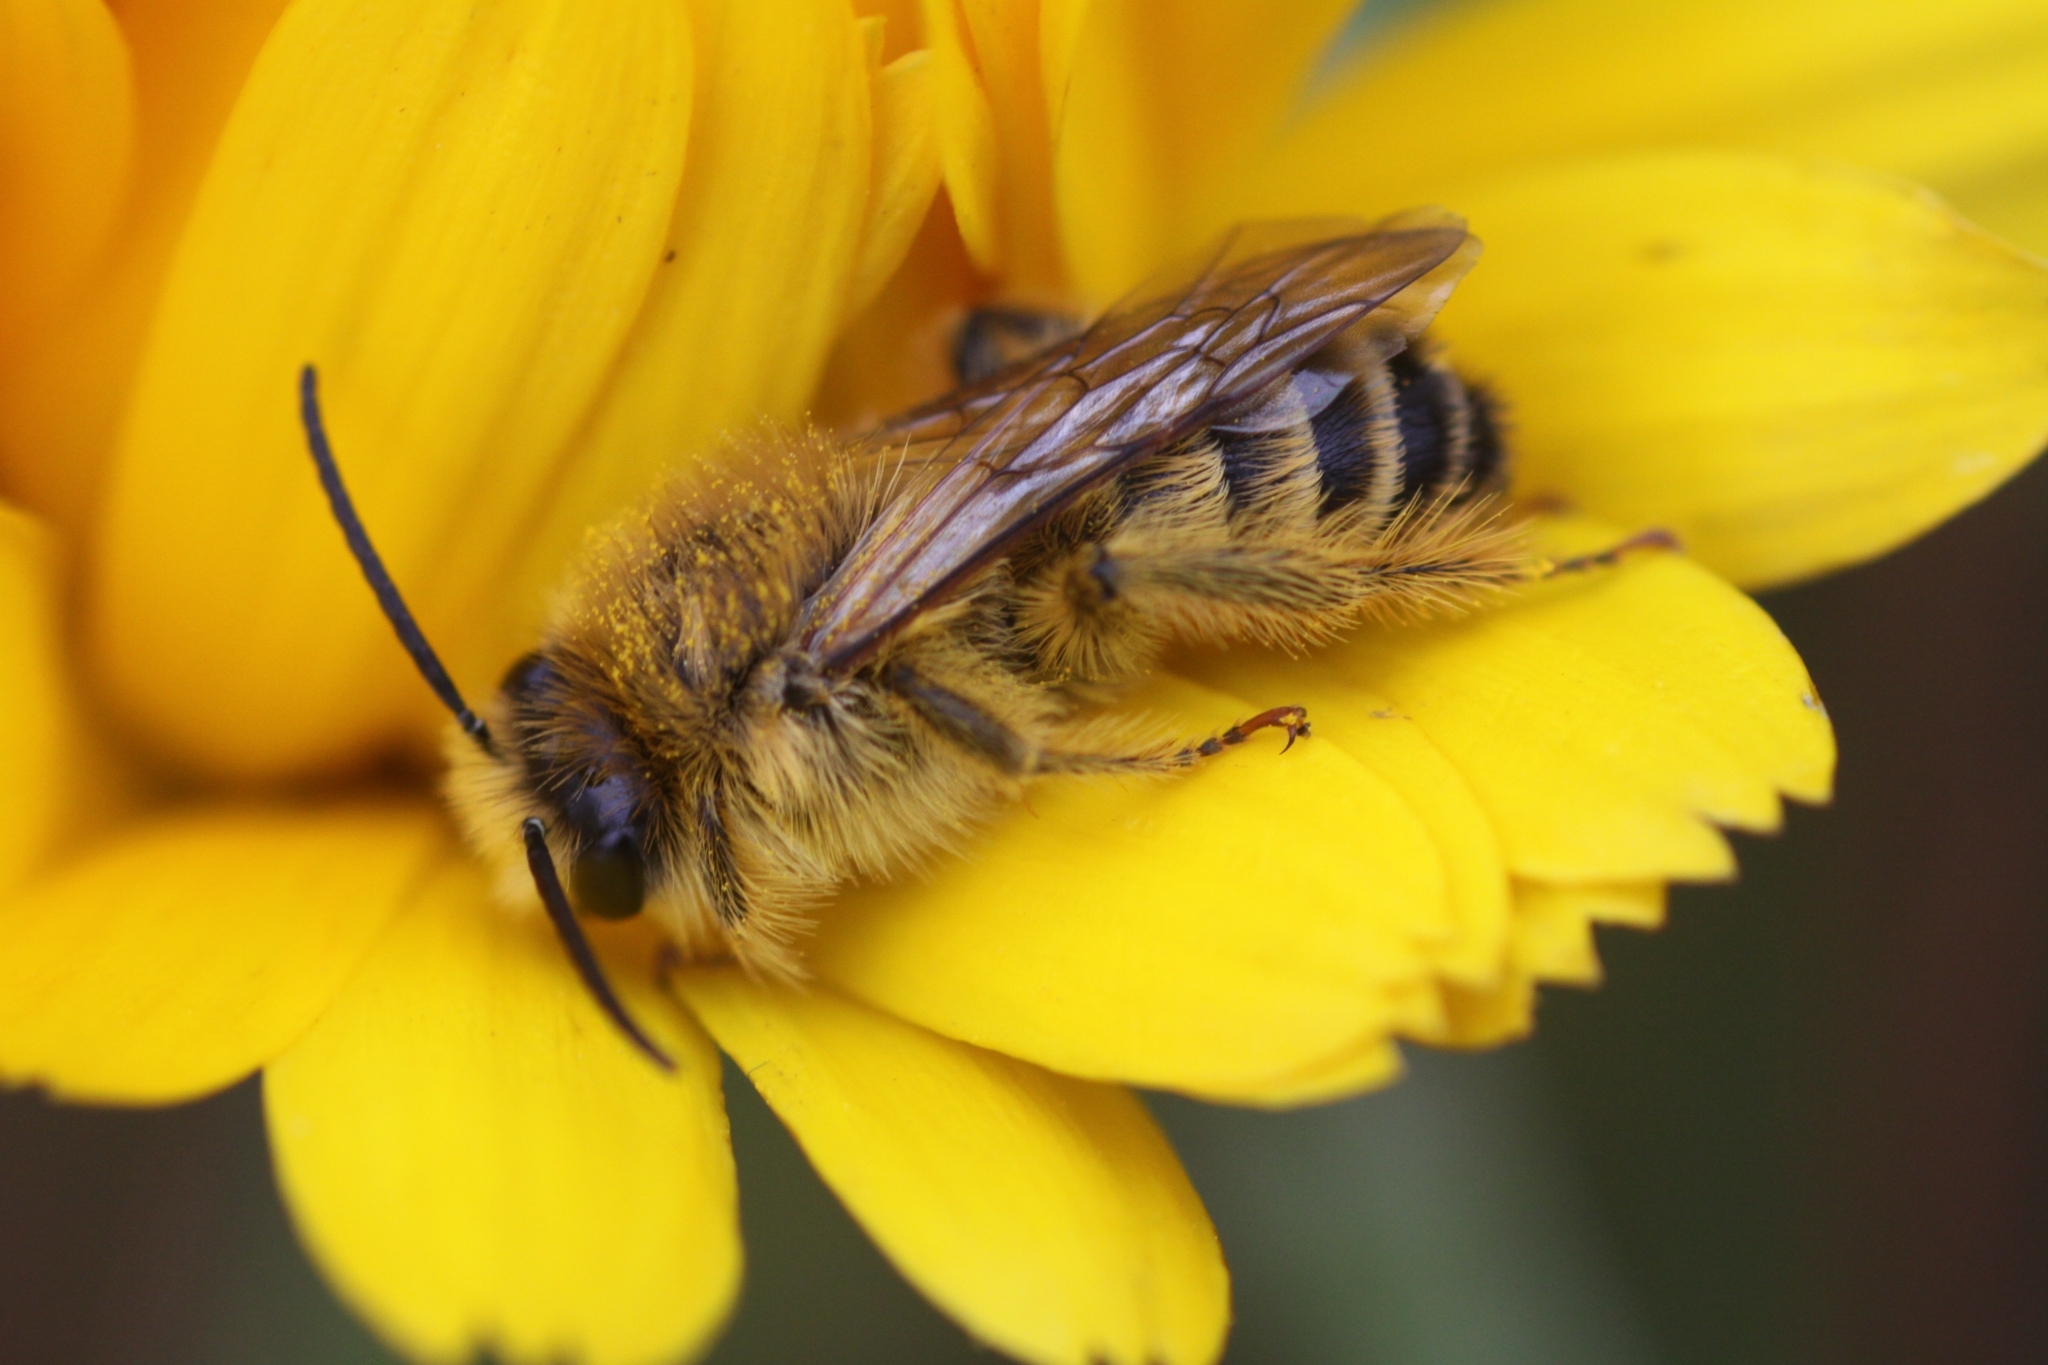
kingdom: Animalia
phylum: Arthropoda
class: Insecta
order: Hymenoptera
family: Melittidae
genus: Dasypoda
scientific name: Dasypoda hirtipes
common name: Pantaloon bee
